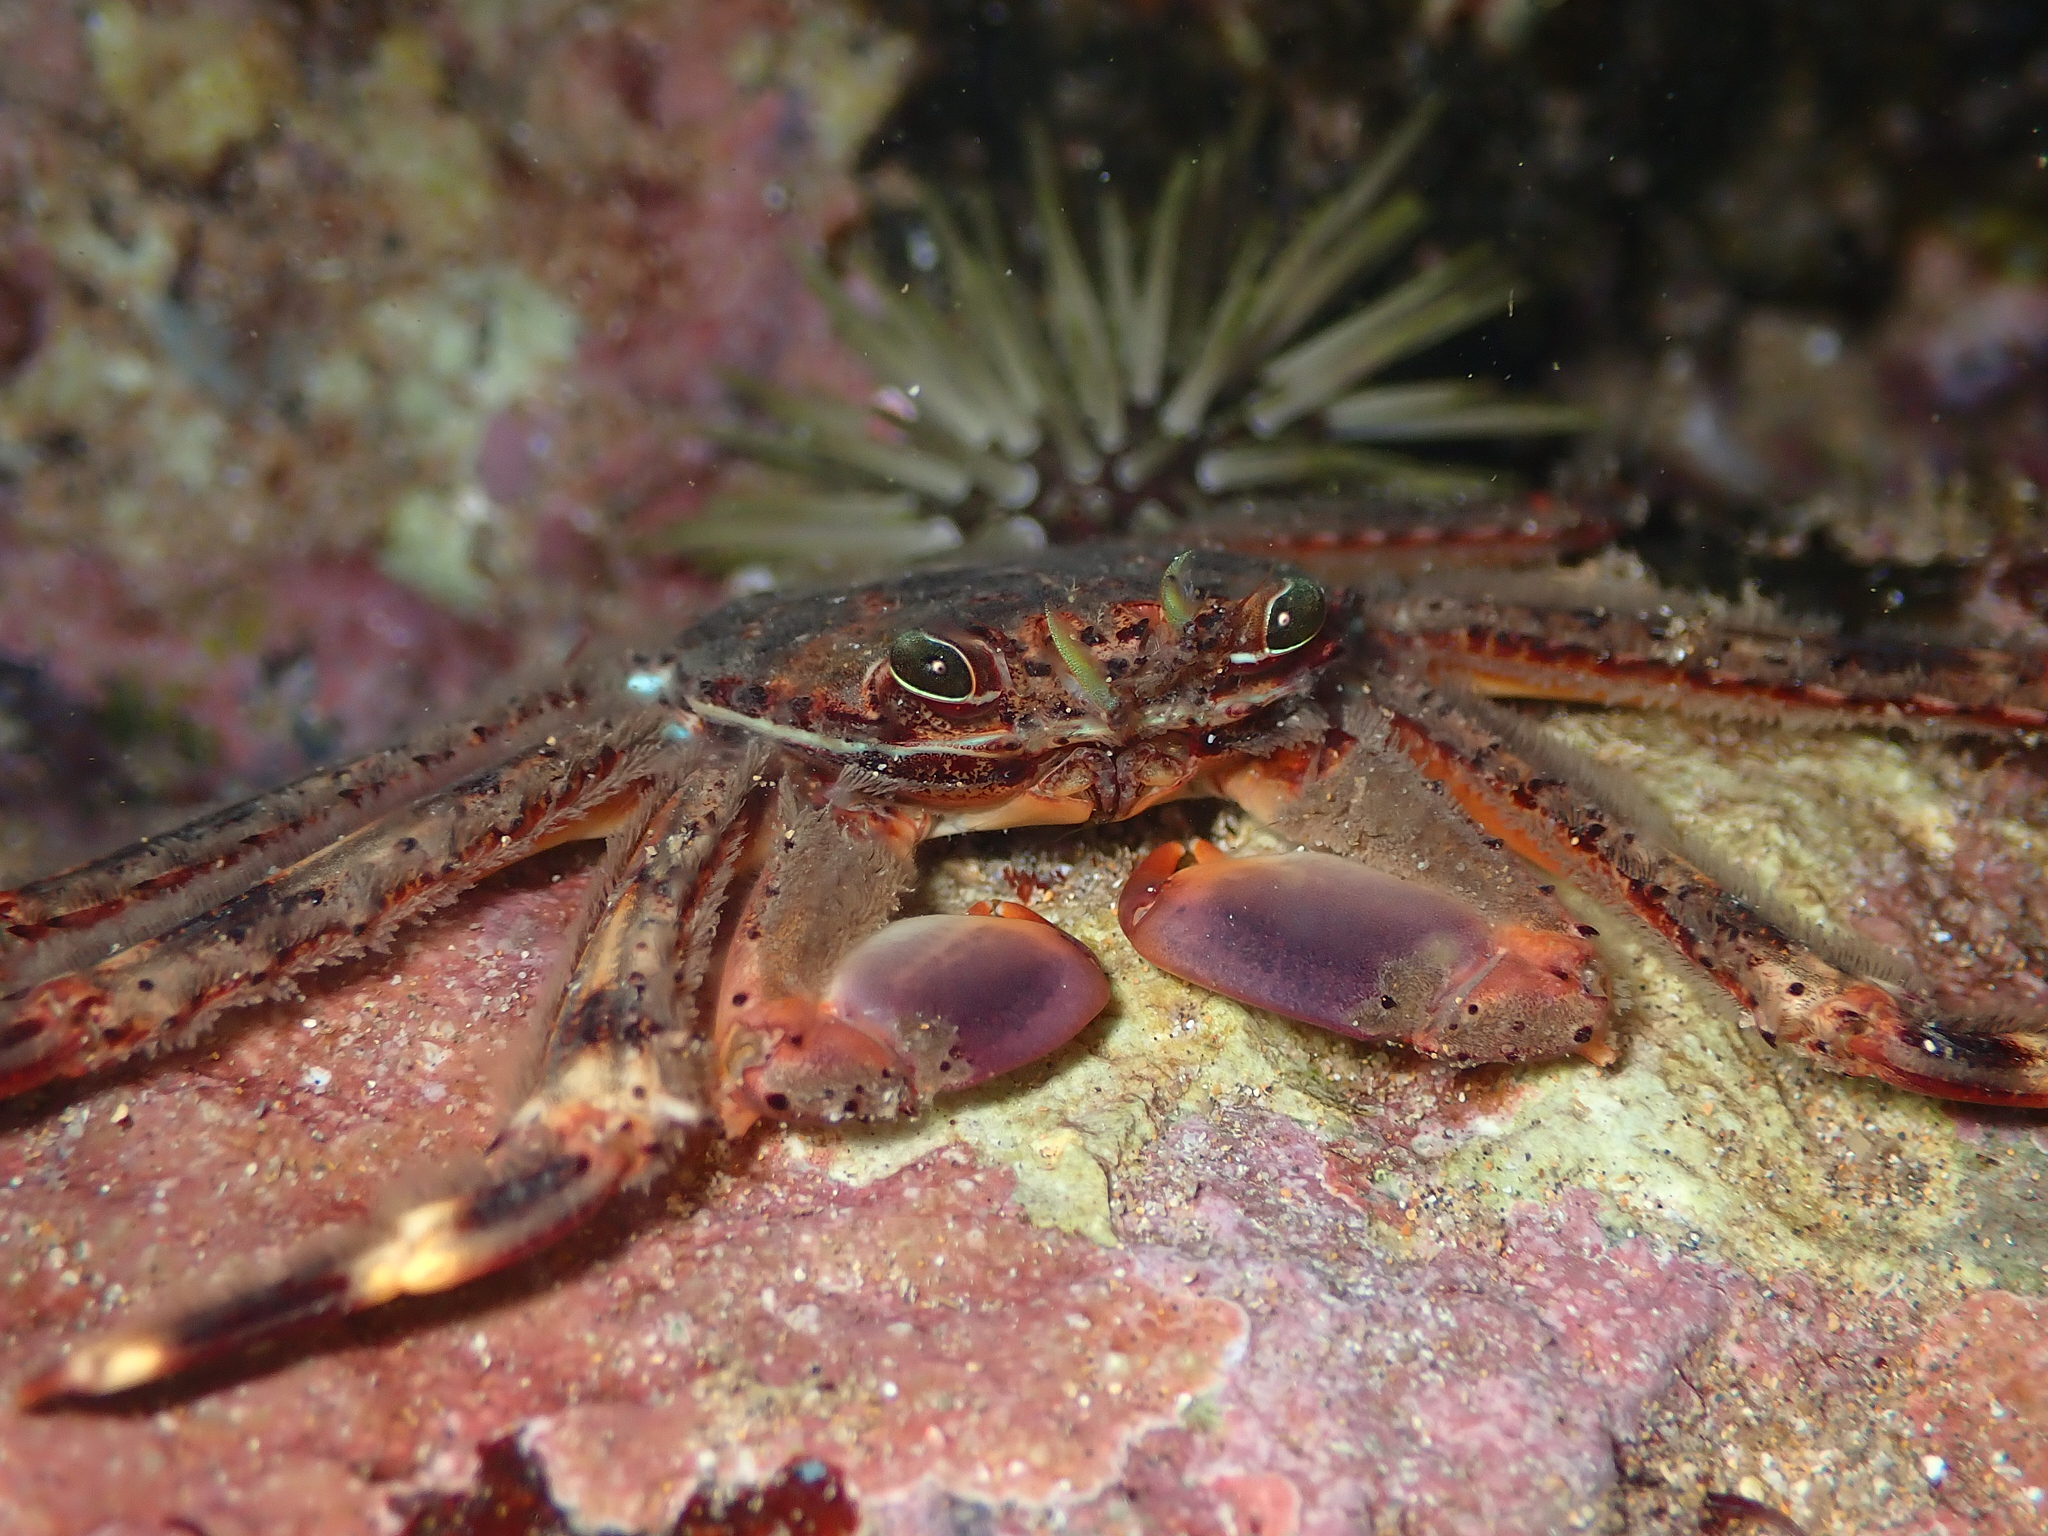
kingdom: Animalia
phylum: Arthropoda
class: Malacostraca
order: Decapoda
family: Percnidae
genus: Percnon
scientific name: Percnon planissimum
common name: Flat rock crab
